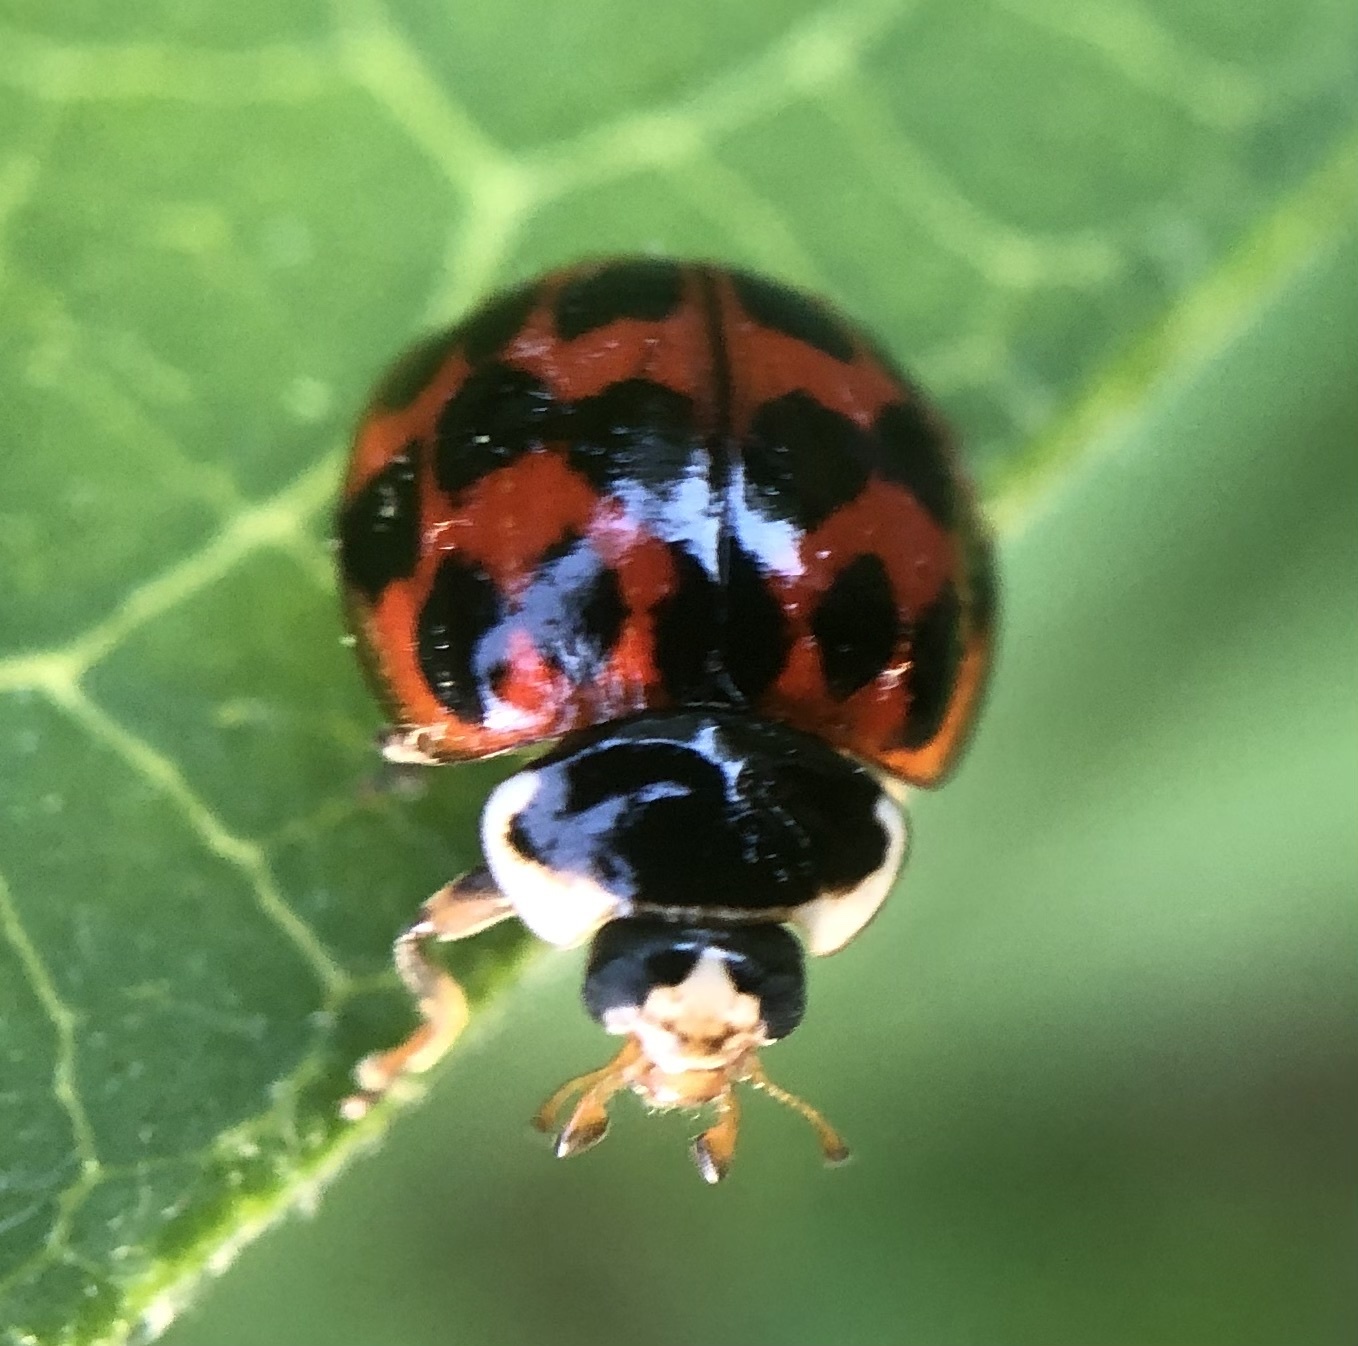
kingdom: Animalia
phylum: Arthropoda
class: Insecta
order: Coleoptera
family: Coccinellidae
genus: Harmonia
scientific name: Harmonia axyridis
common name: Harlequin ladybird
